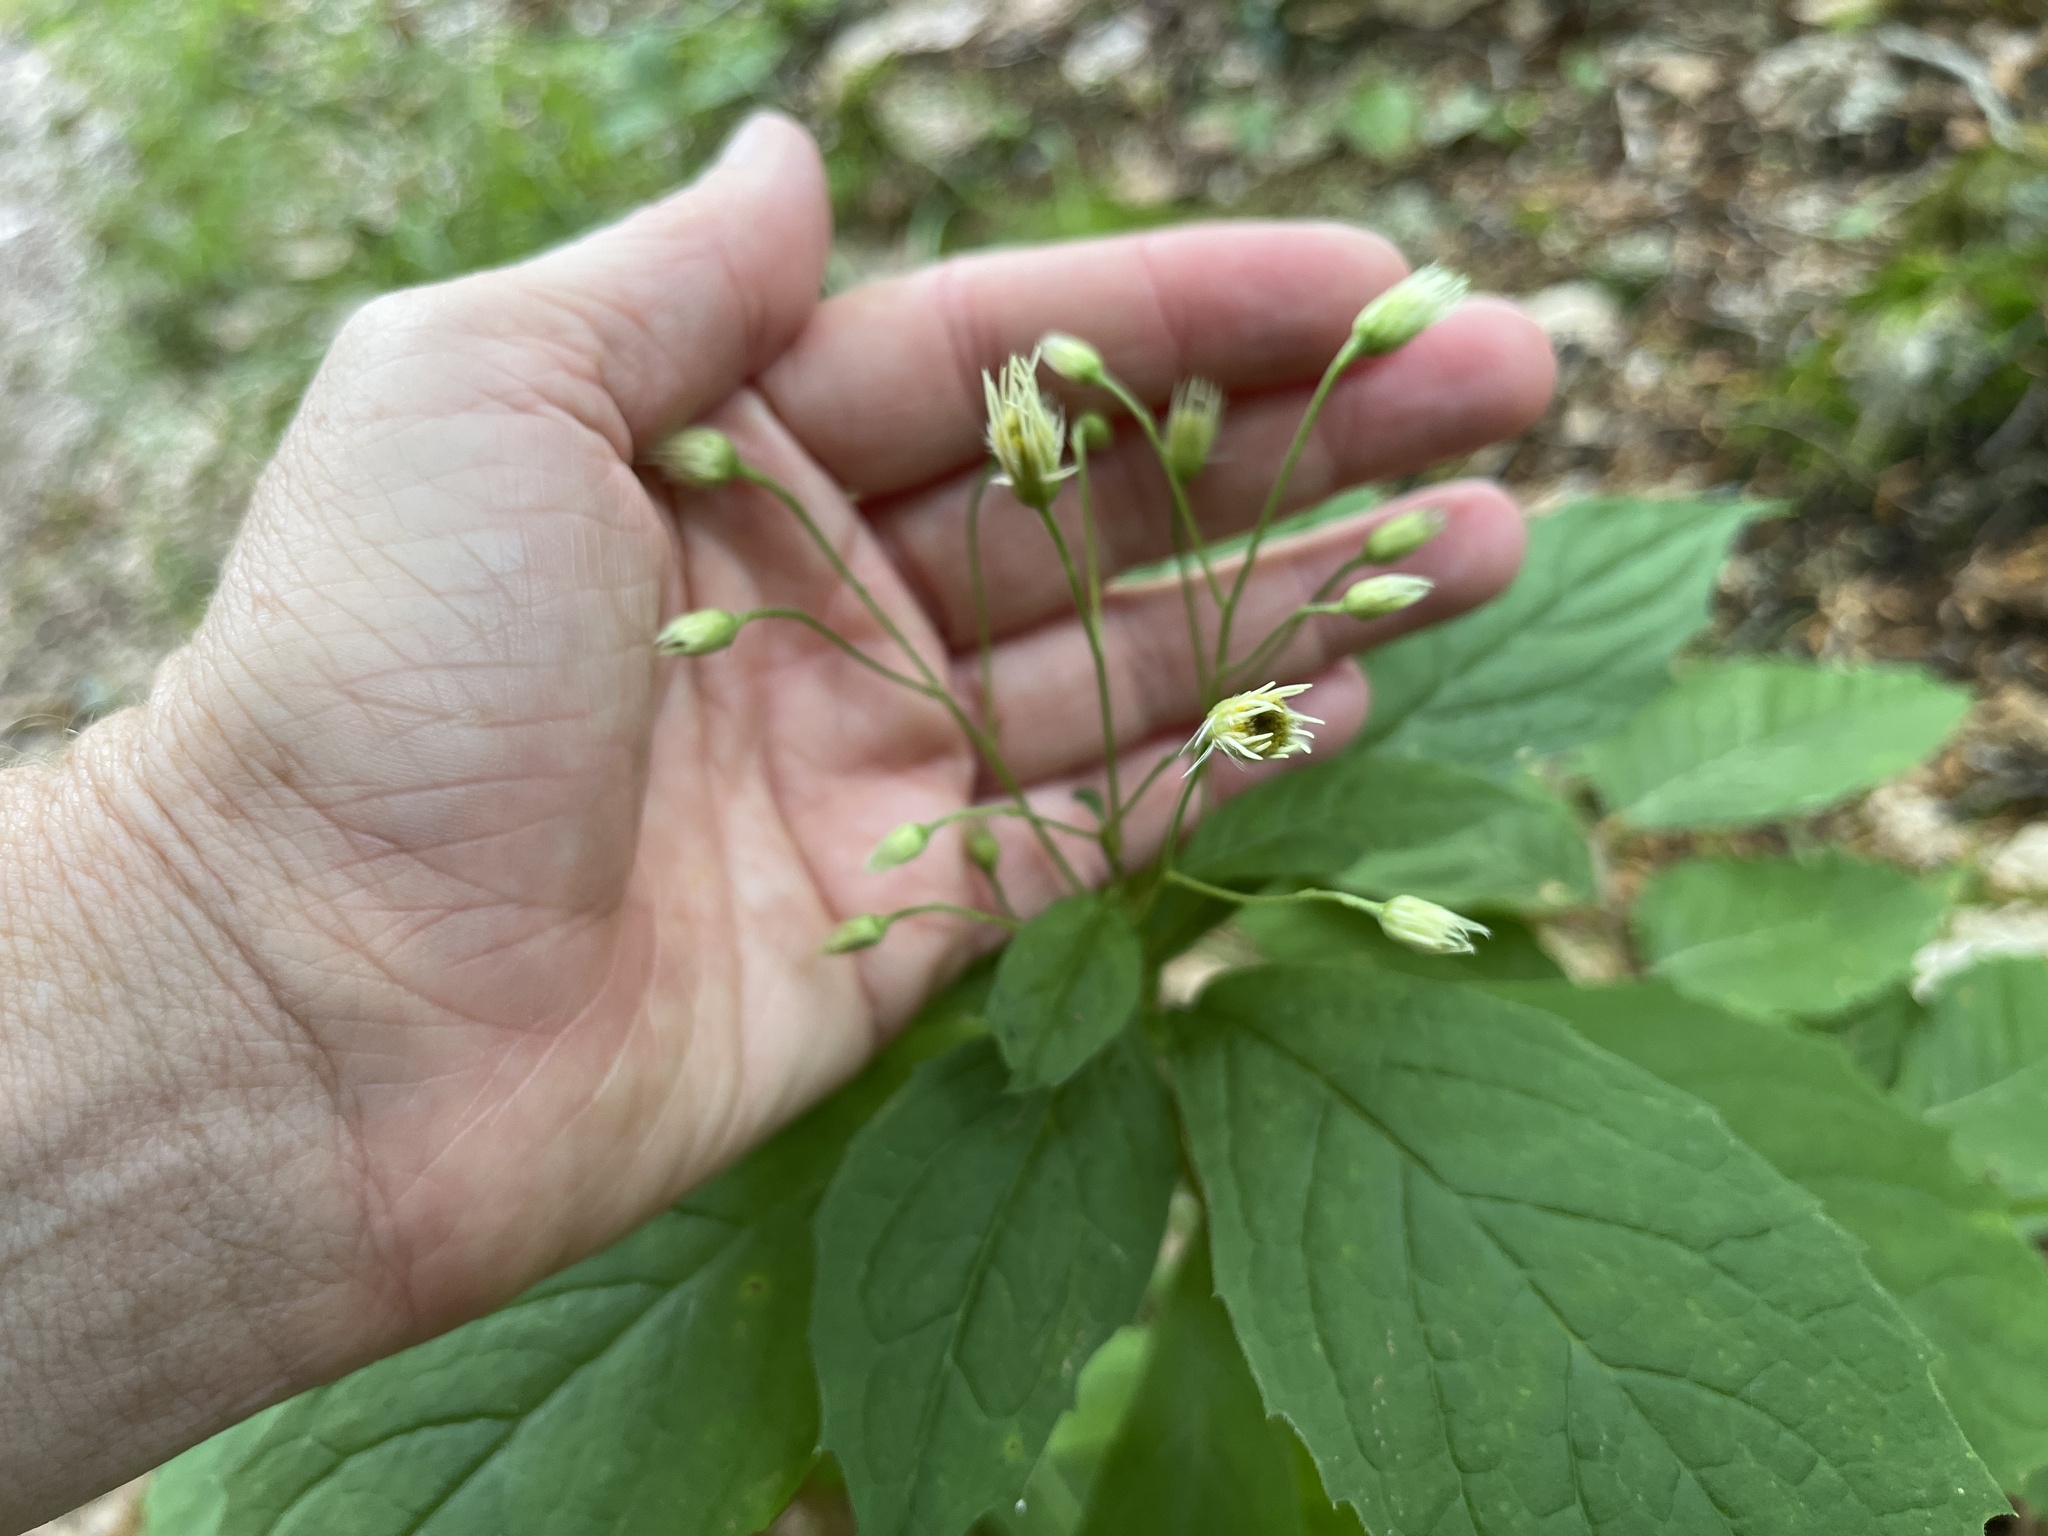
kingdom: Plantae
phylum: Tracheophyta
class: Magnoliopsida
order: Asterales
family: Asteraceae
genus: Oclemena
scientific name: Oclemena acuminata
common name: Mountain aster
